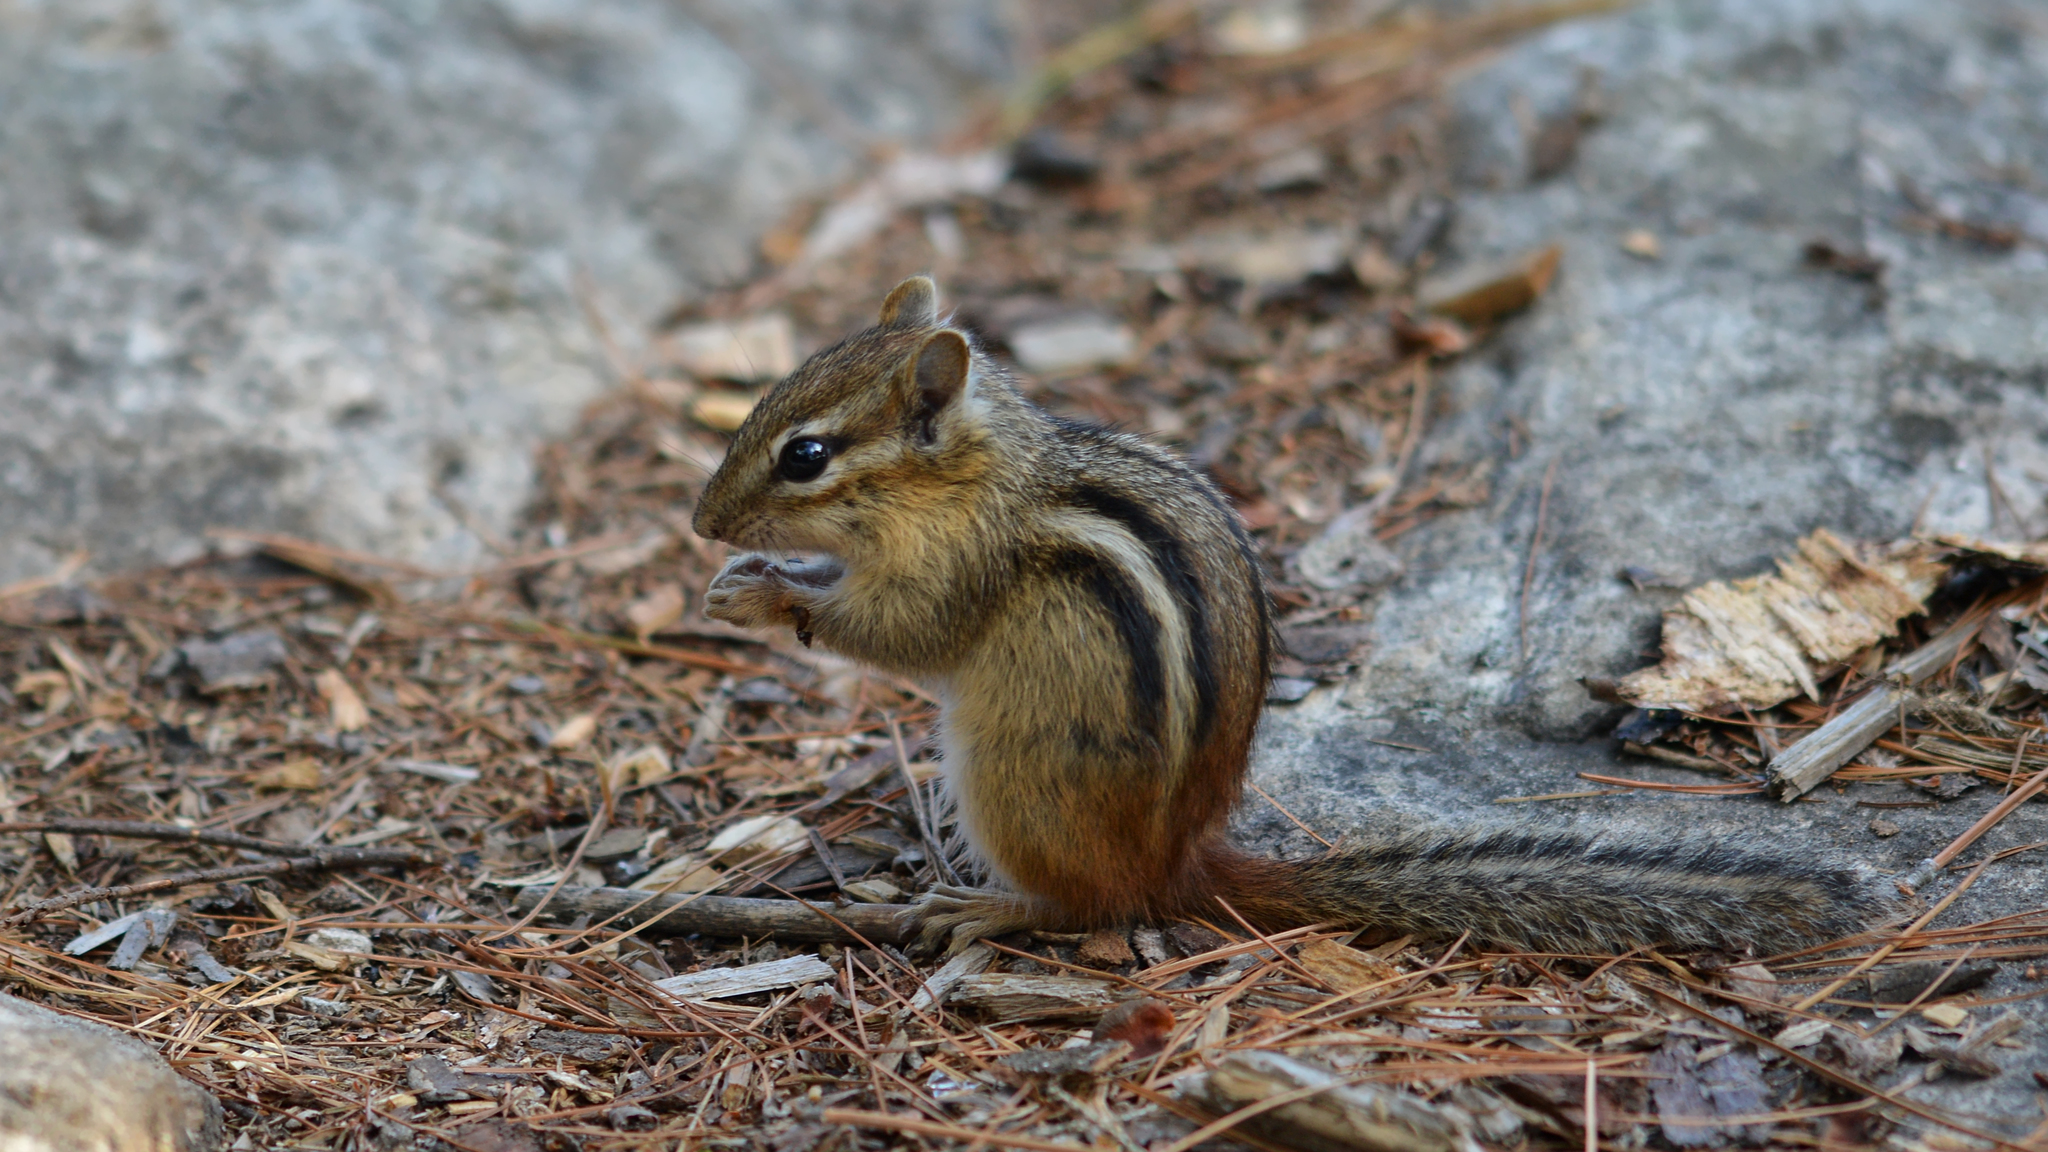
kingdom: Animalia
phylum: Chordata
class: Mammalia
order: Rodentia
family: Sciuridae
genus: Tamias
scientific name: Tamias striatus
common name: Eastern chipmunk
